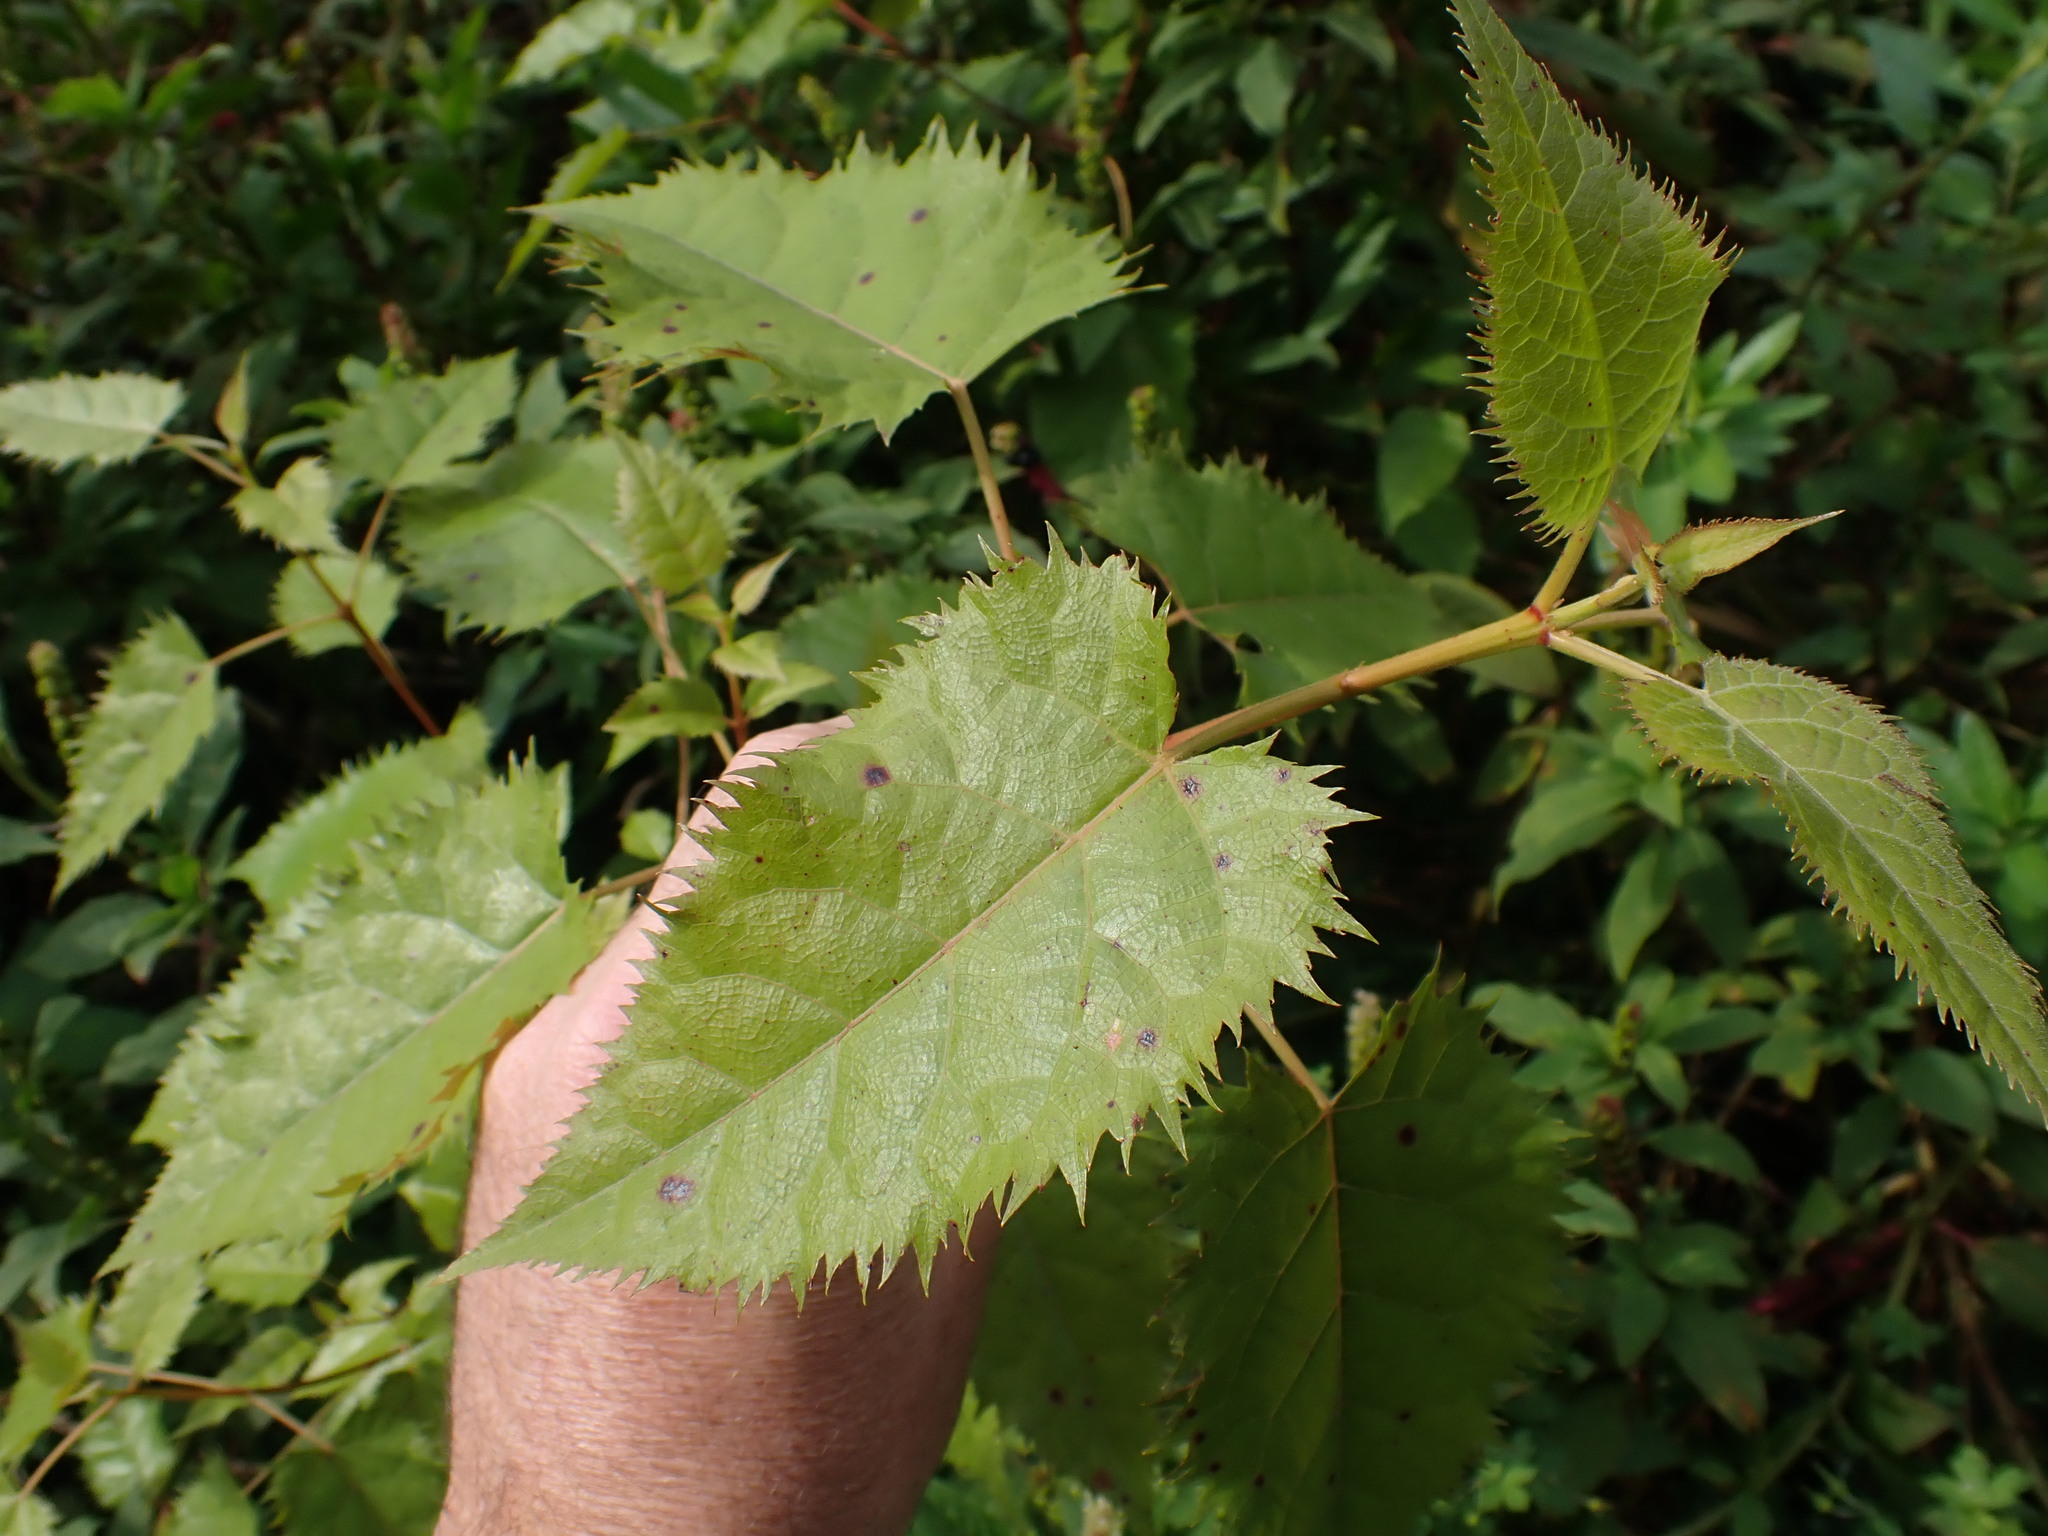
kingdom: Plantae
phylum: Tracheophyta
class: Magnoliopsida
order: Oxalidales
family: Elaeocarpaceae
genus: Aristotelia
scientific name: Aristotelia serrata
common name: New zealand wineberry
